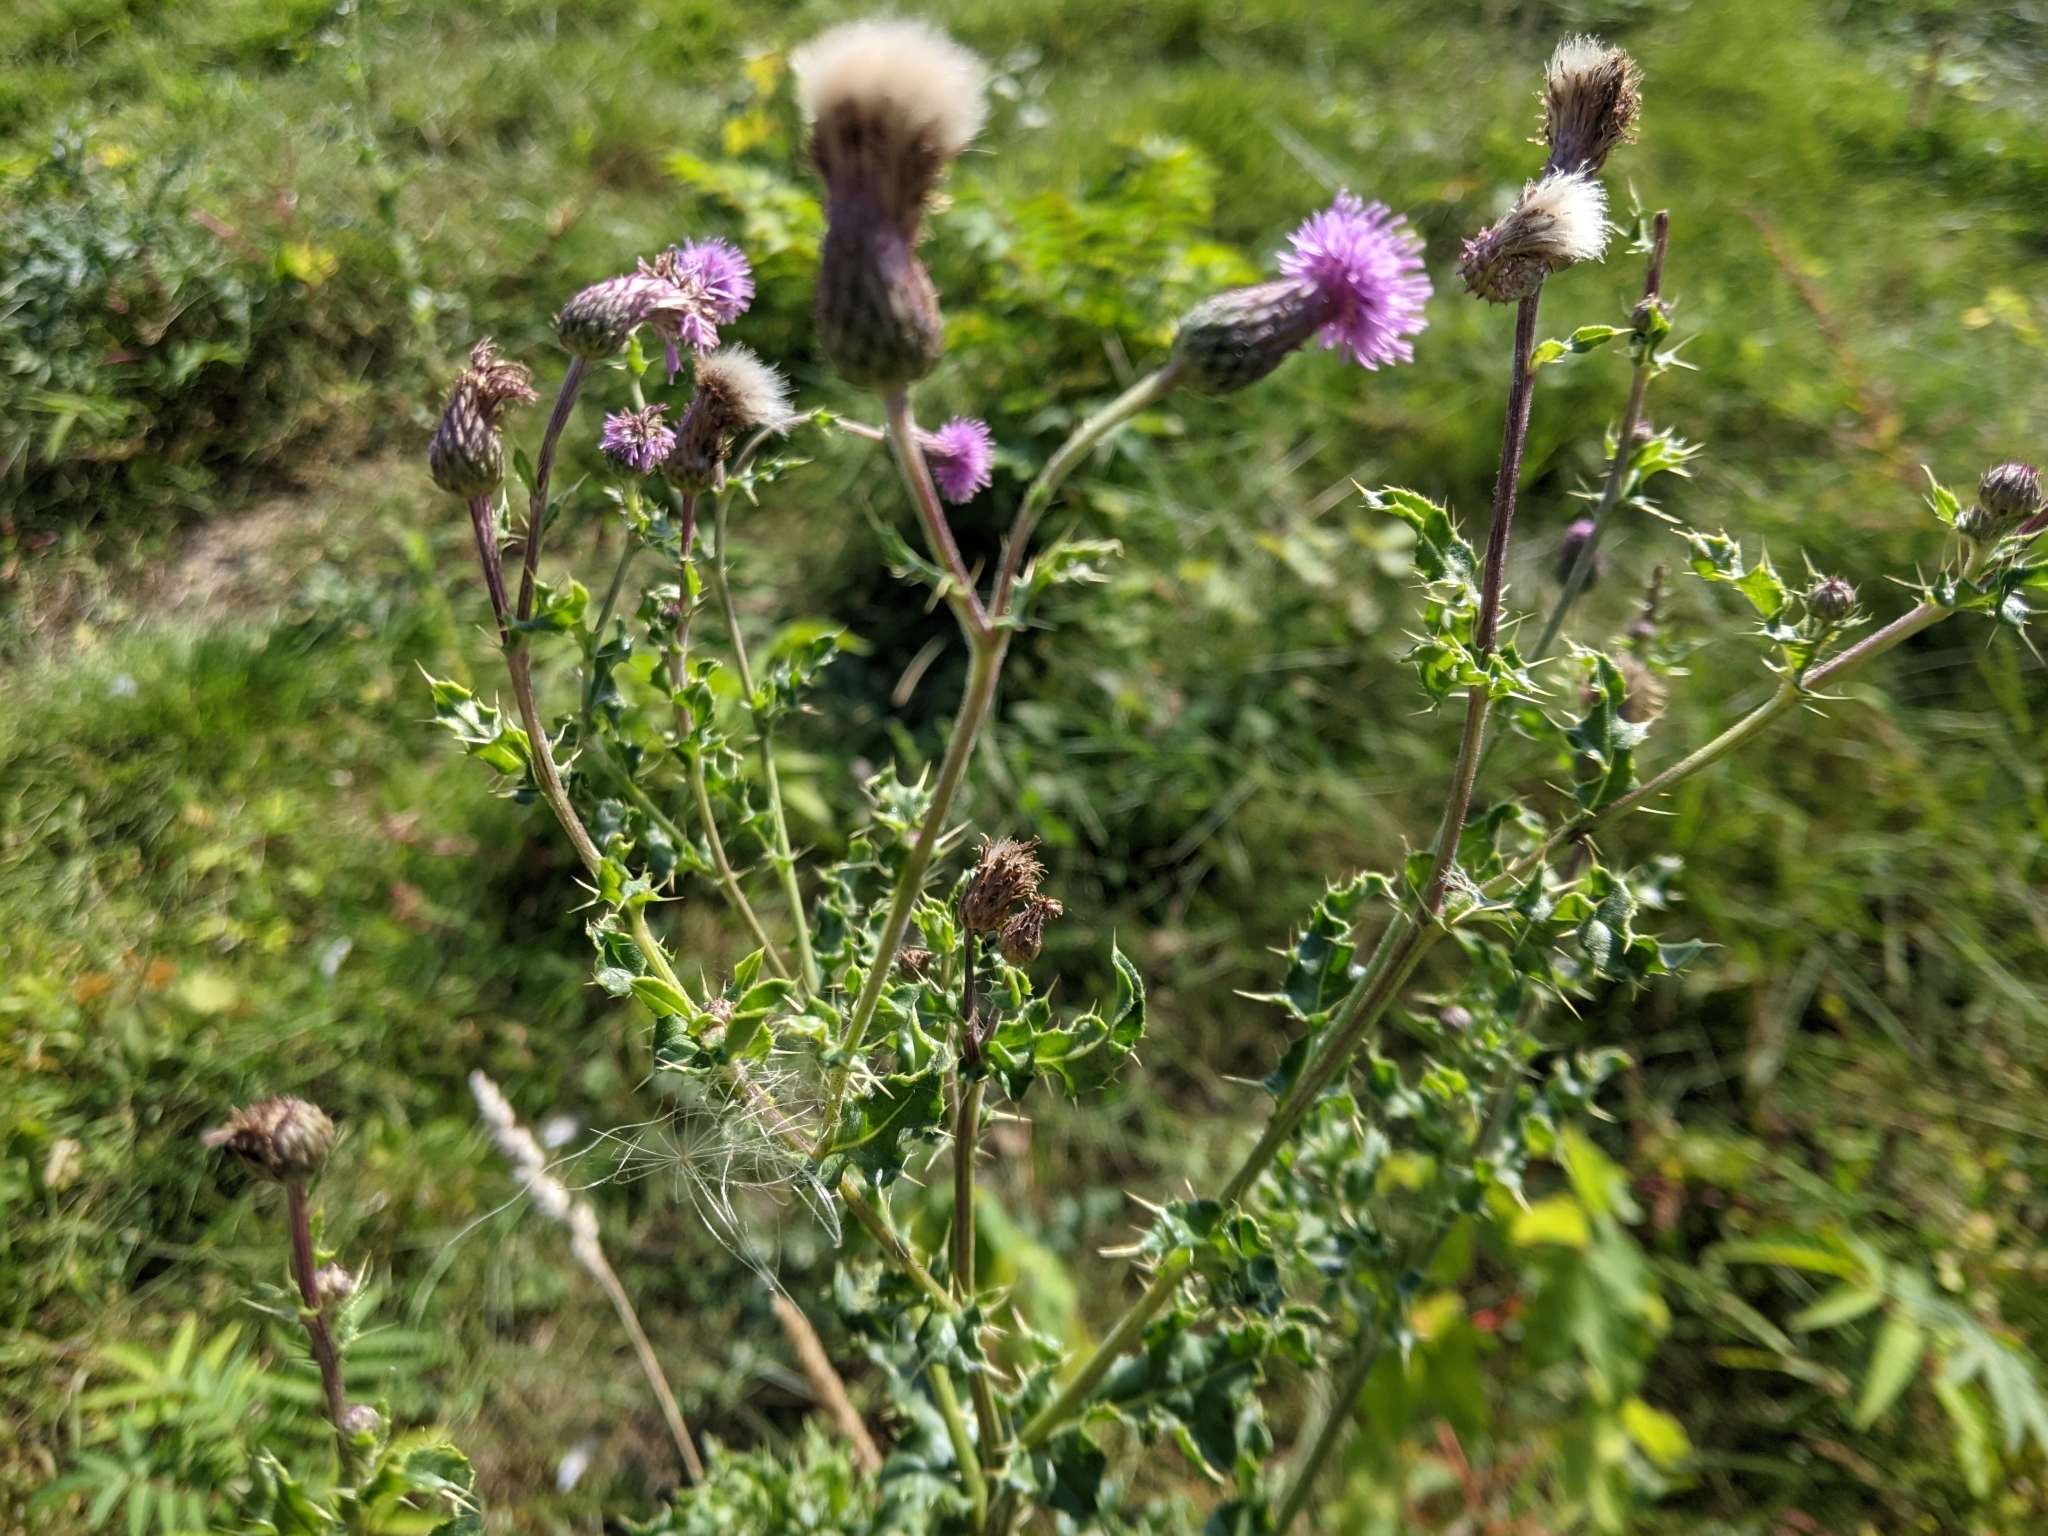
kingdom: Plantae
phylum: Tracheophyta
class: Magnoliopsida
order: Asterales
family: Asteraceae
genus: Cirsium
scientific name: Cirsium arvense
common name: Creeping thistle
